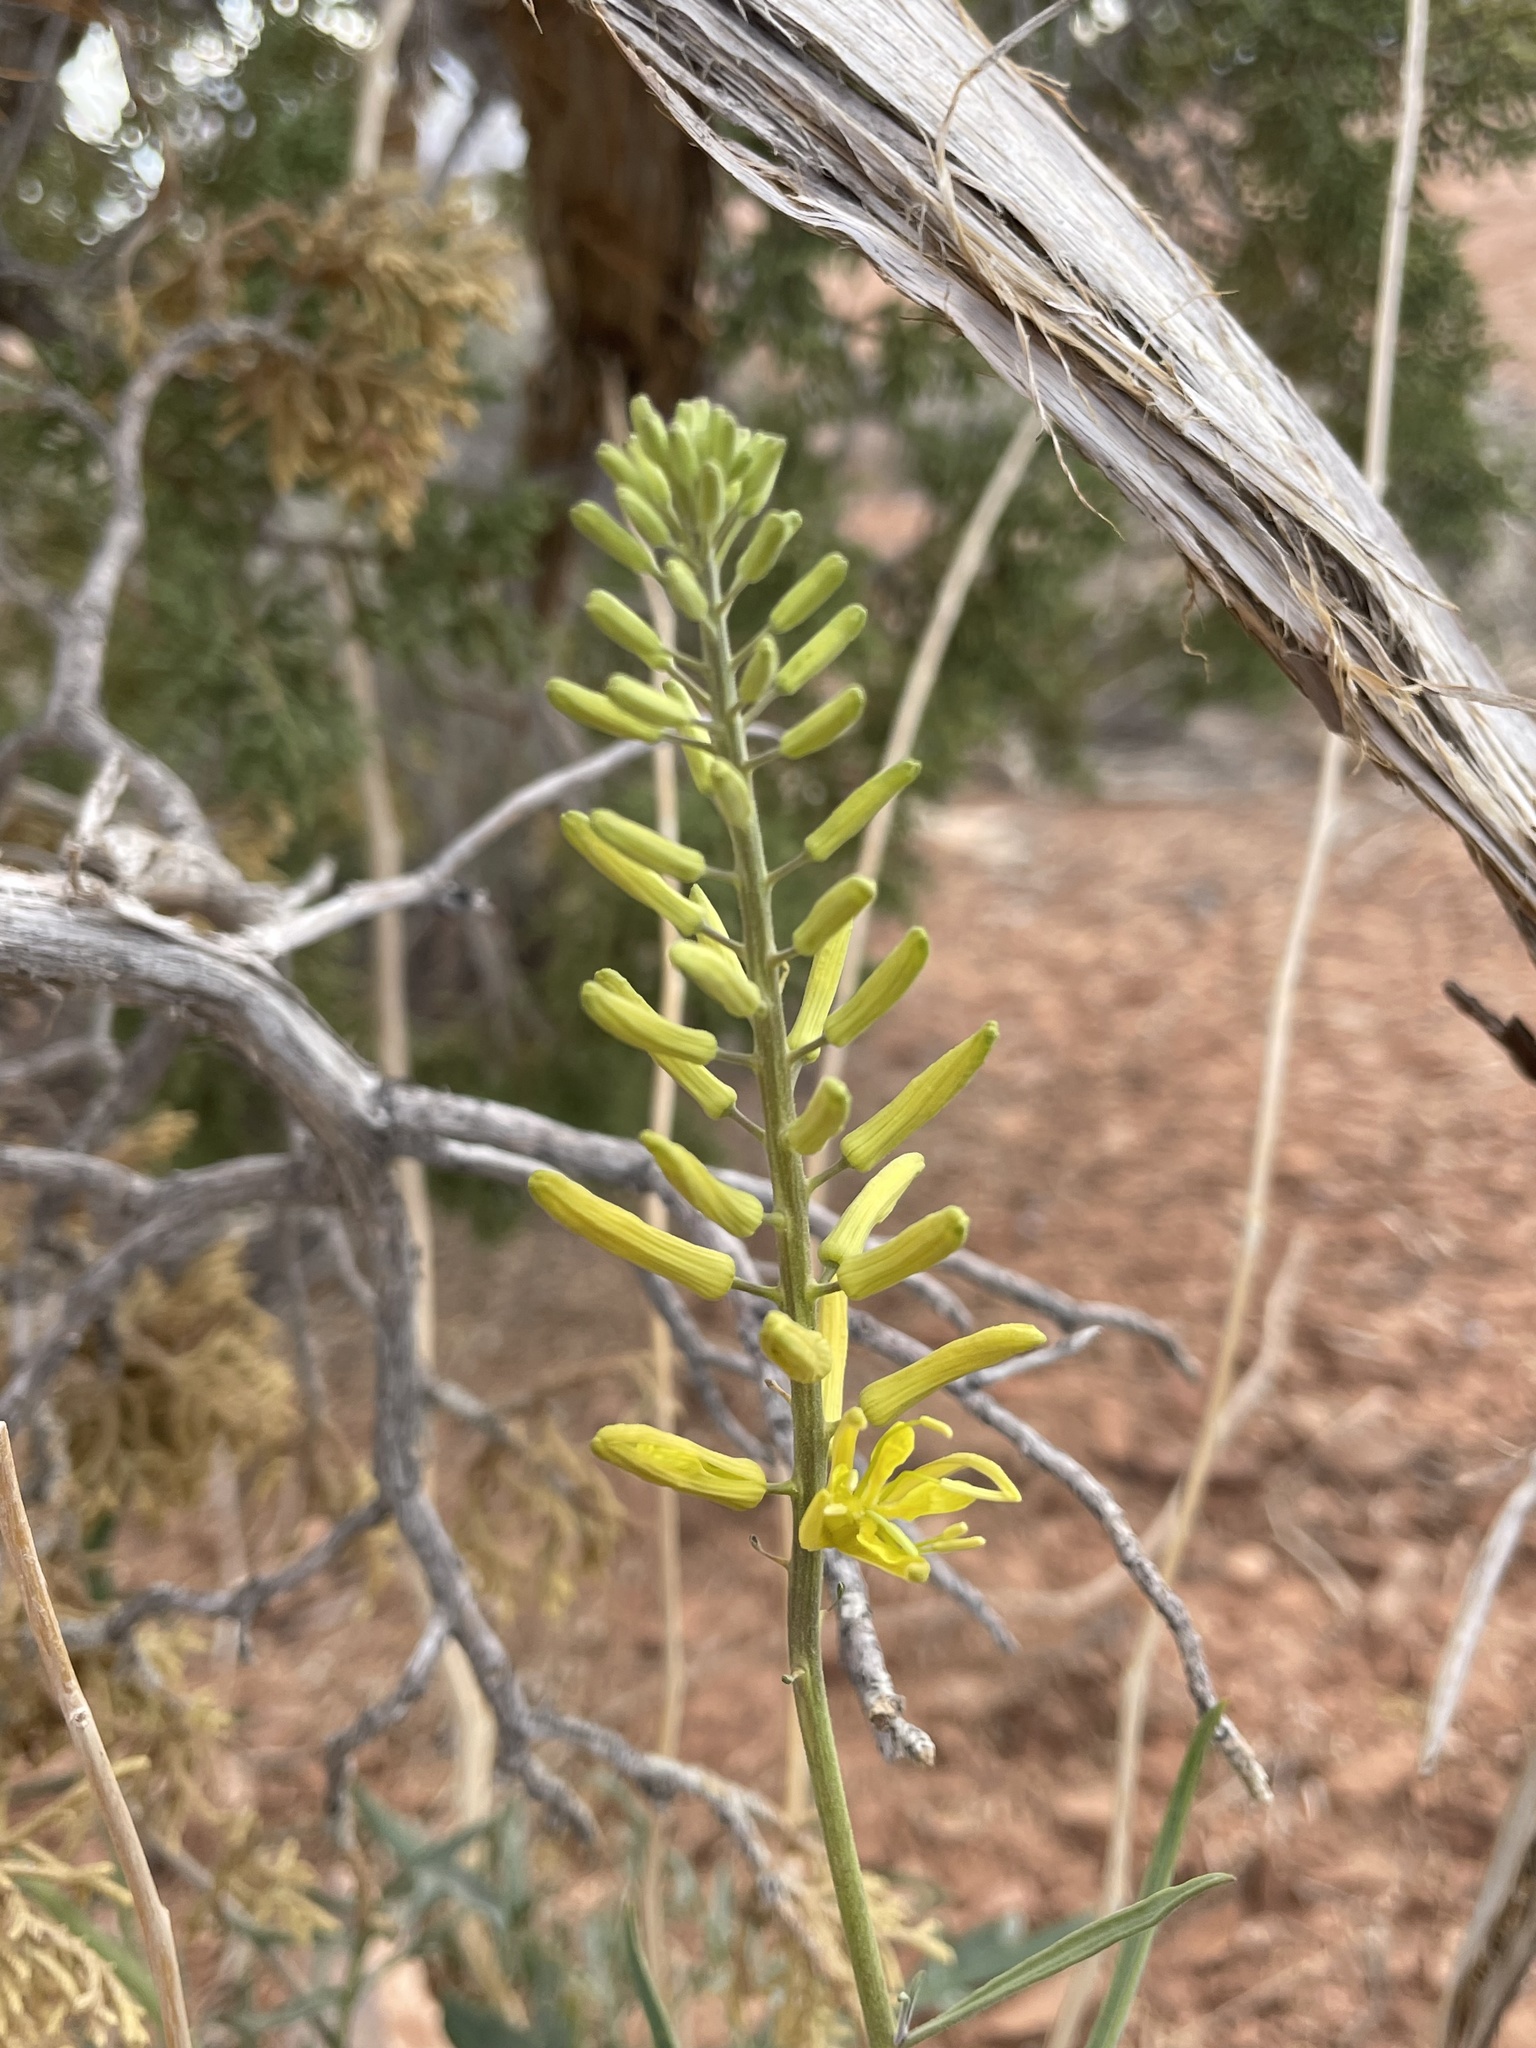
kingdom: Plantae
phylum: Tracheophyta
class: Magnoliopsida
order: Brassicales
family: Brassicaceae
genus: Stanleya
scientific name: Stanleya pinnata
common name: Prince's-plume
